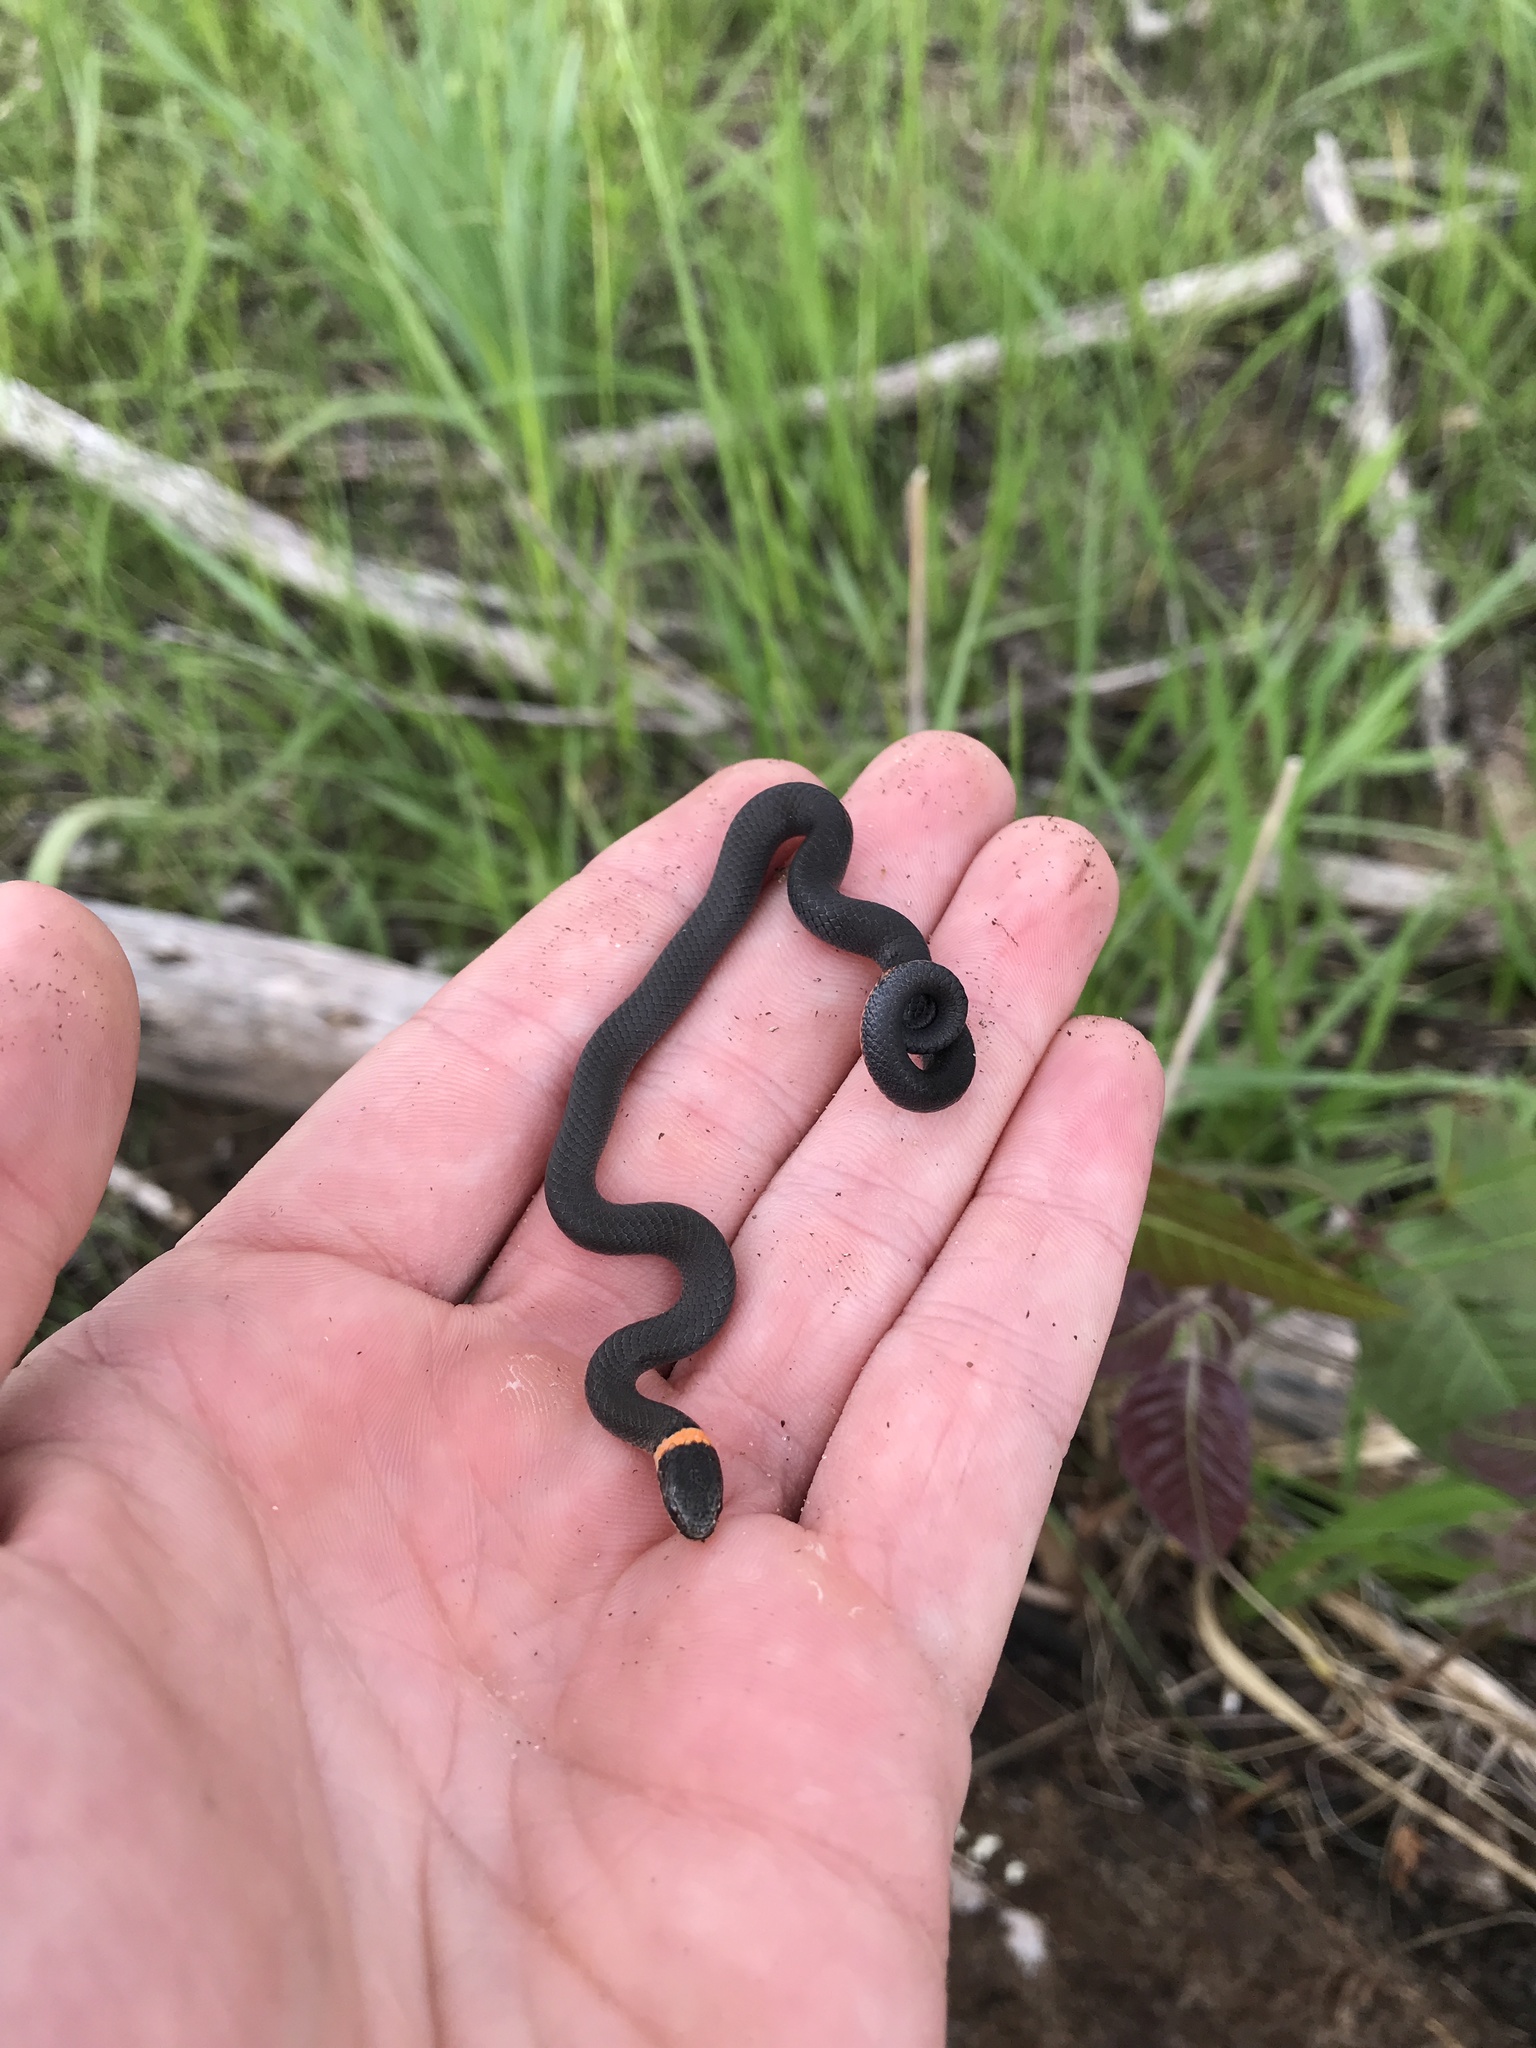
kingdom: Animalia
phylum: Chordata
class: Squamata
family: Colubridae
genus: Diadophis
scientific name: Diadophis punctatus
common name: Ringneck snake
